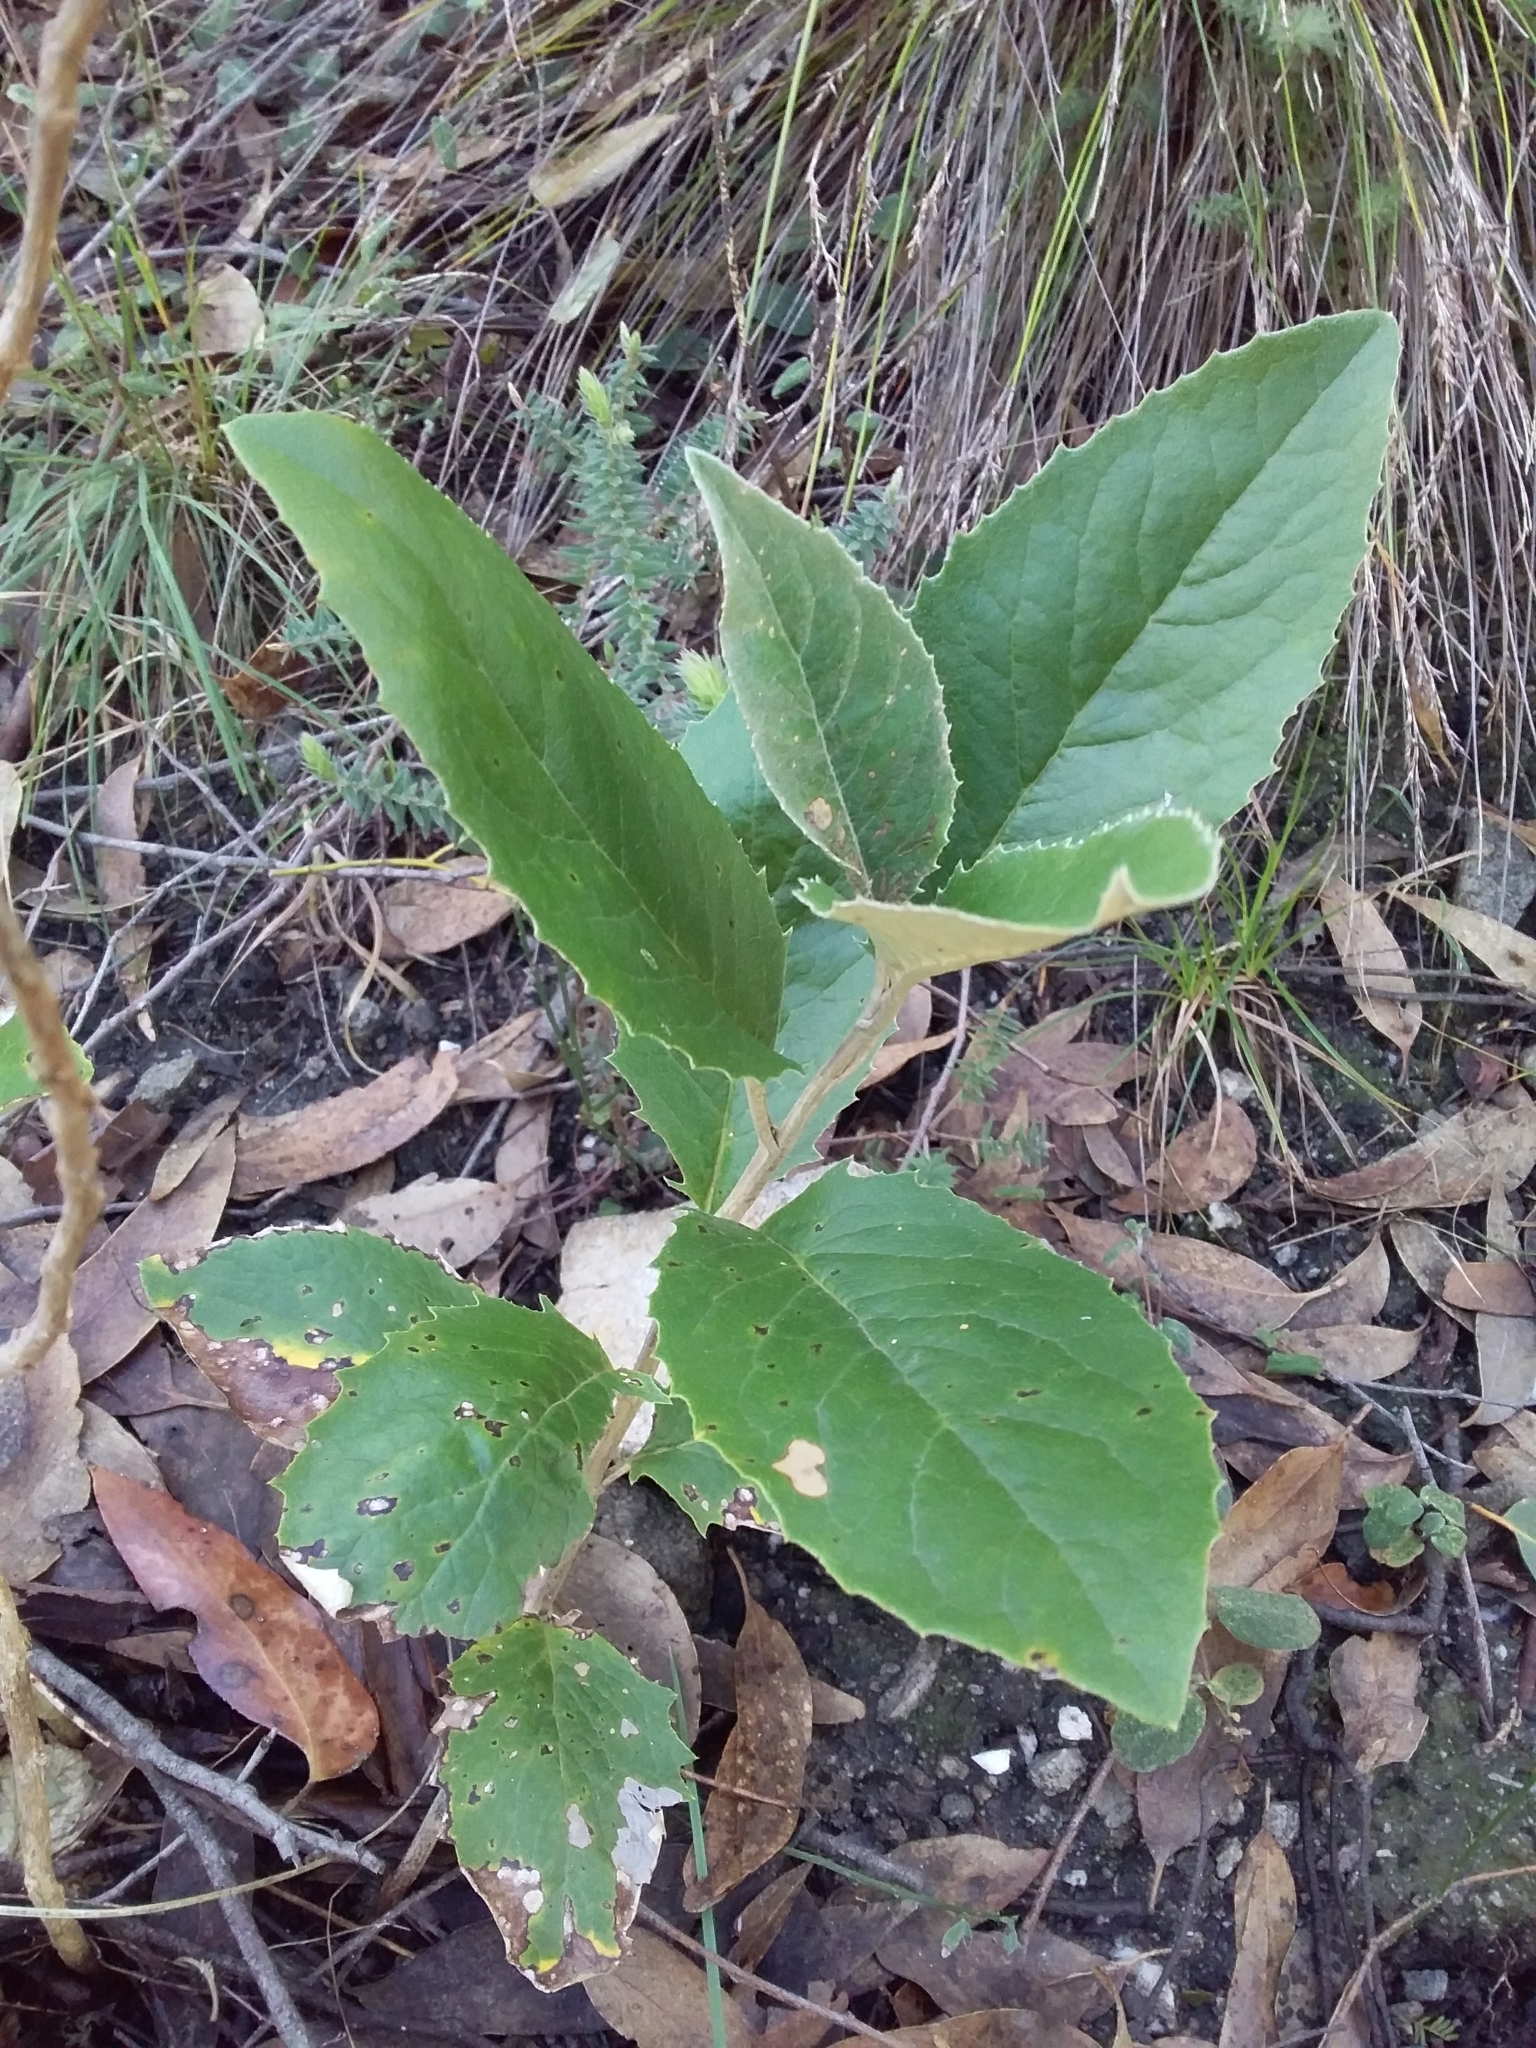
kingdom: Plantae
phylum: Tracheophyta
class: Magnoliopsida
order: Asterales
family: Asteraceae
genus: Olearia
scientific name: Olearia grandiflora
